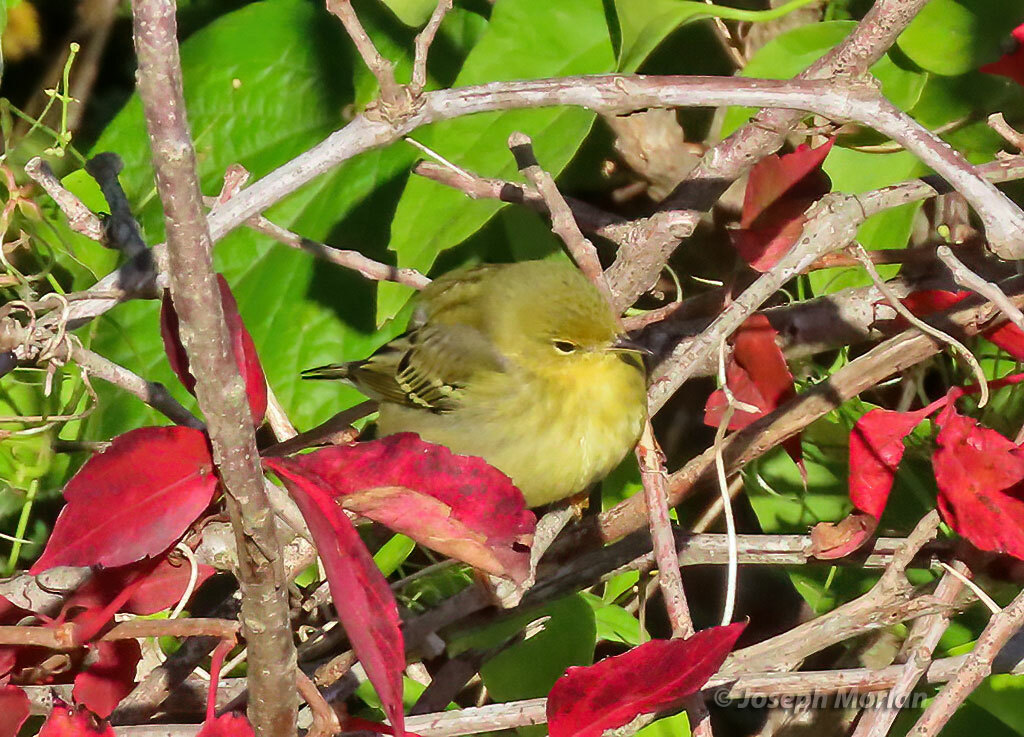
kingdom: Animalia
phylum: Chordata
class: Aves
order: Passeriformes
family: Parulidae
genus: Setophaga
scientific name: Setophaga striata
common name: Blackpoll warbler
